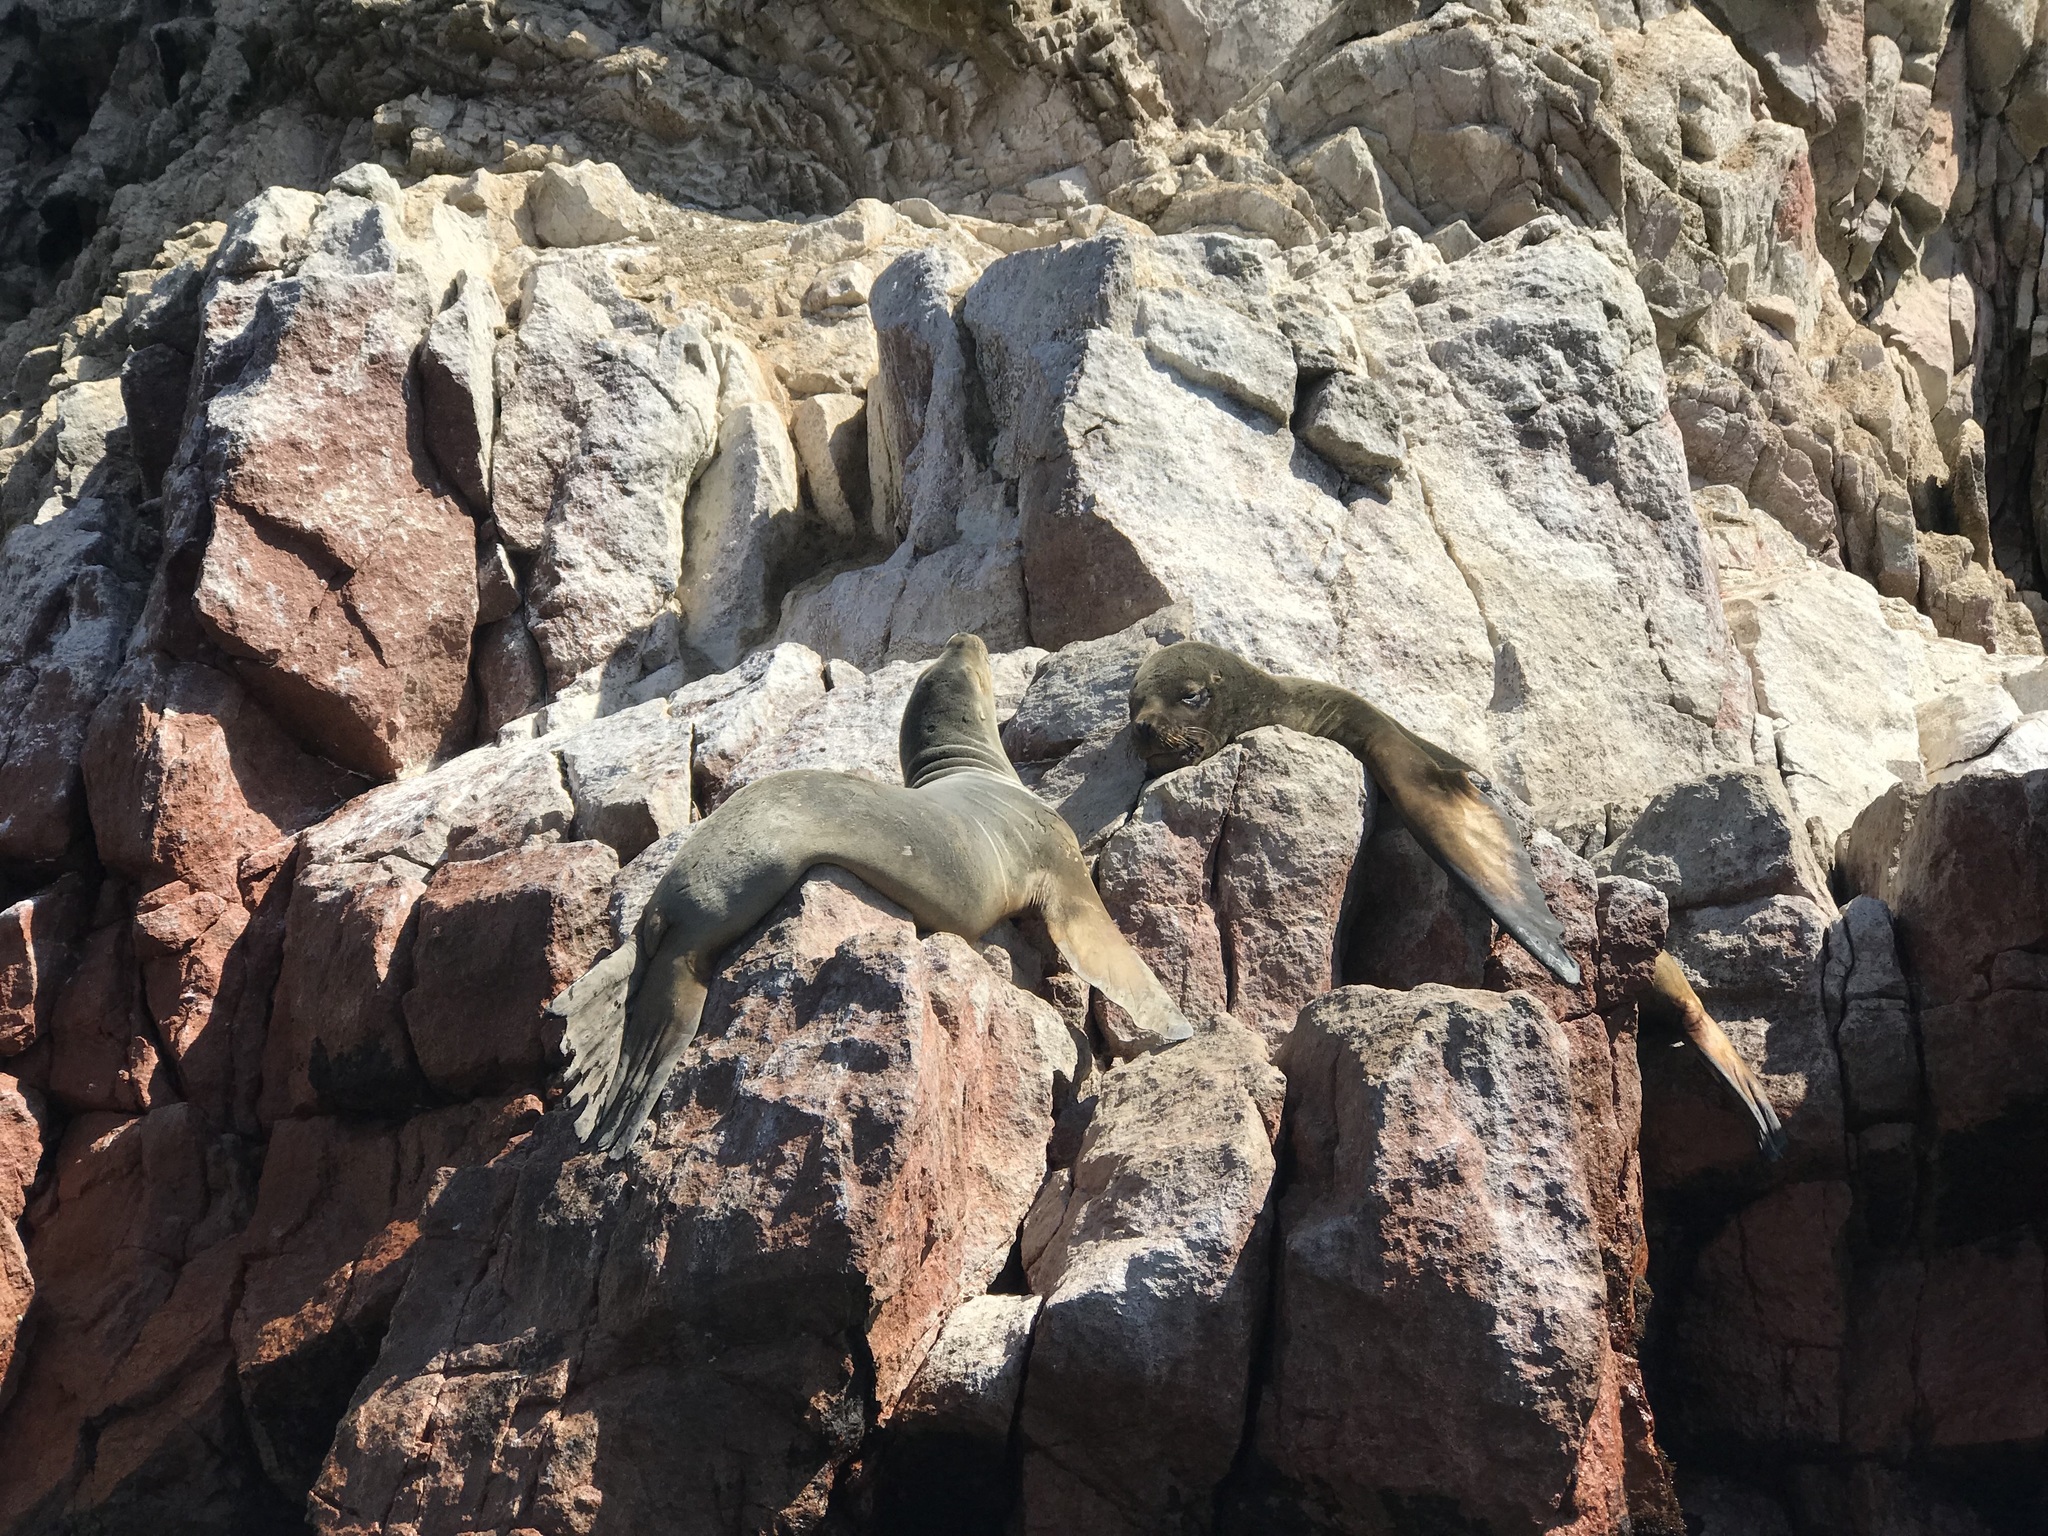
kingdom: Animalia
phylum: Chordata
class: Mammalia
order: Carnivora
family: Otariidae
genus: Otaria
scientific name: Otaria byronia
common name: South american sea lion
